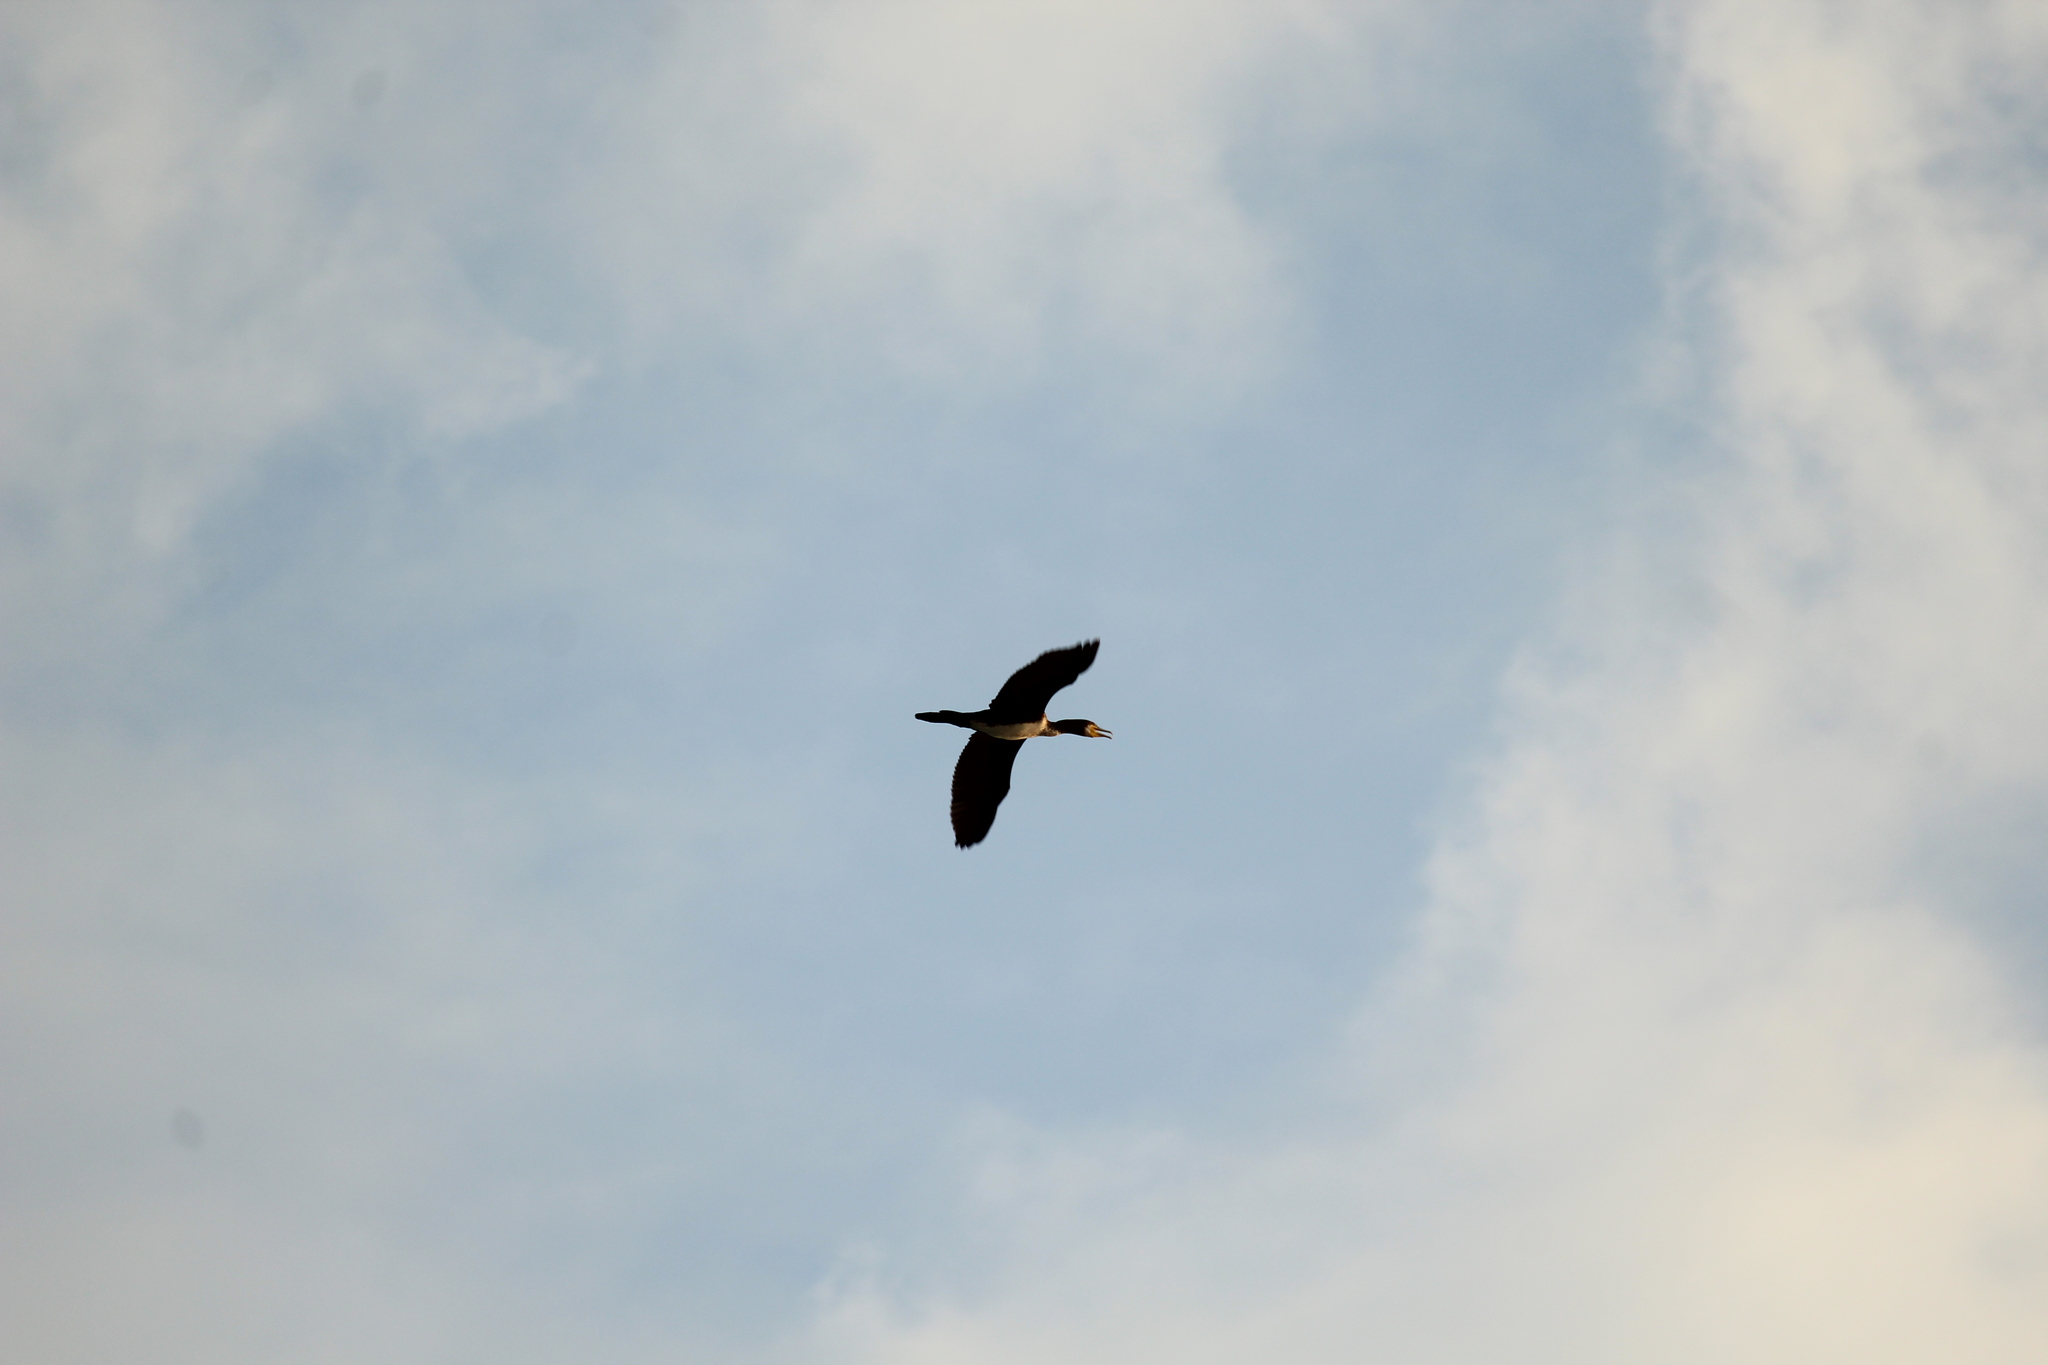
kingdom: Animalia
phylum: Chordata
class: Aves
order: Suliformes
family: Phalacrocoracidae
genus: Phalacrocorax
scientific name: Phalacrocorax carbo
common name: Great cormorant
